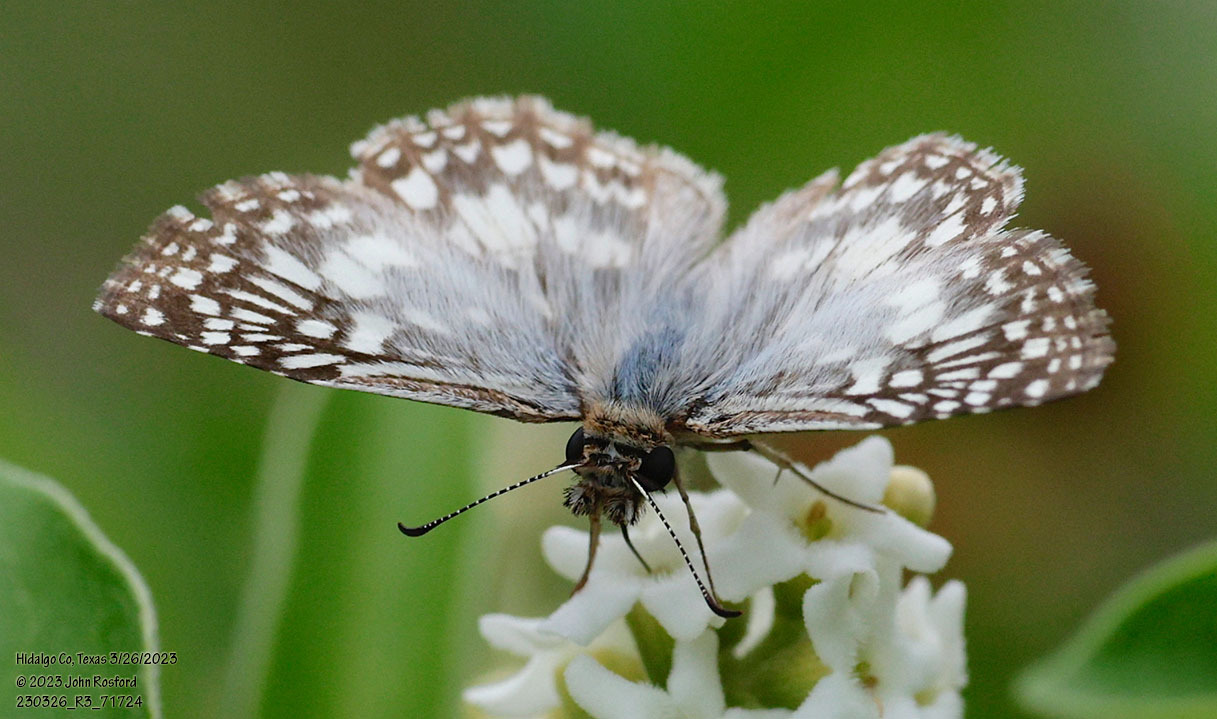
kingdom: Animalia
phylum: Arthropoda
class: Insecta
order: Lepidoptera
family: Hesperiidae
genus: Pyrgus
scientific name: Pyrgus oileus
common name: Tropical checkered-skipper
